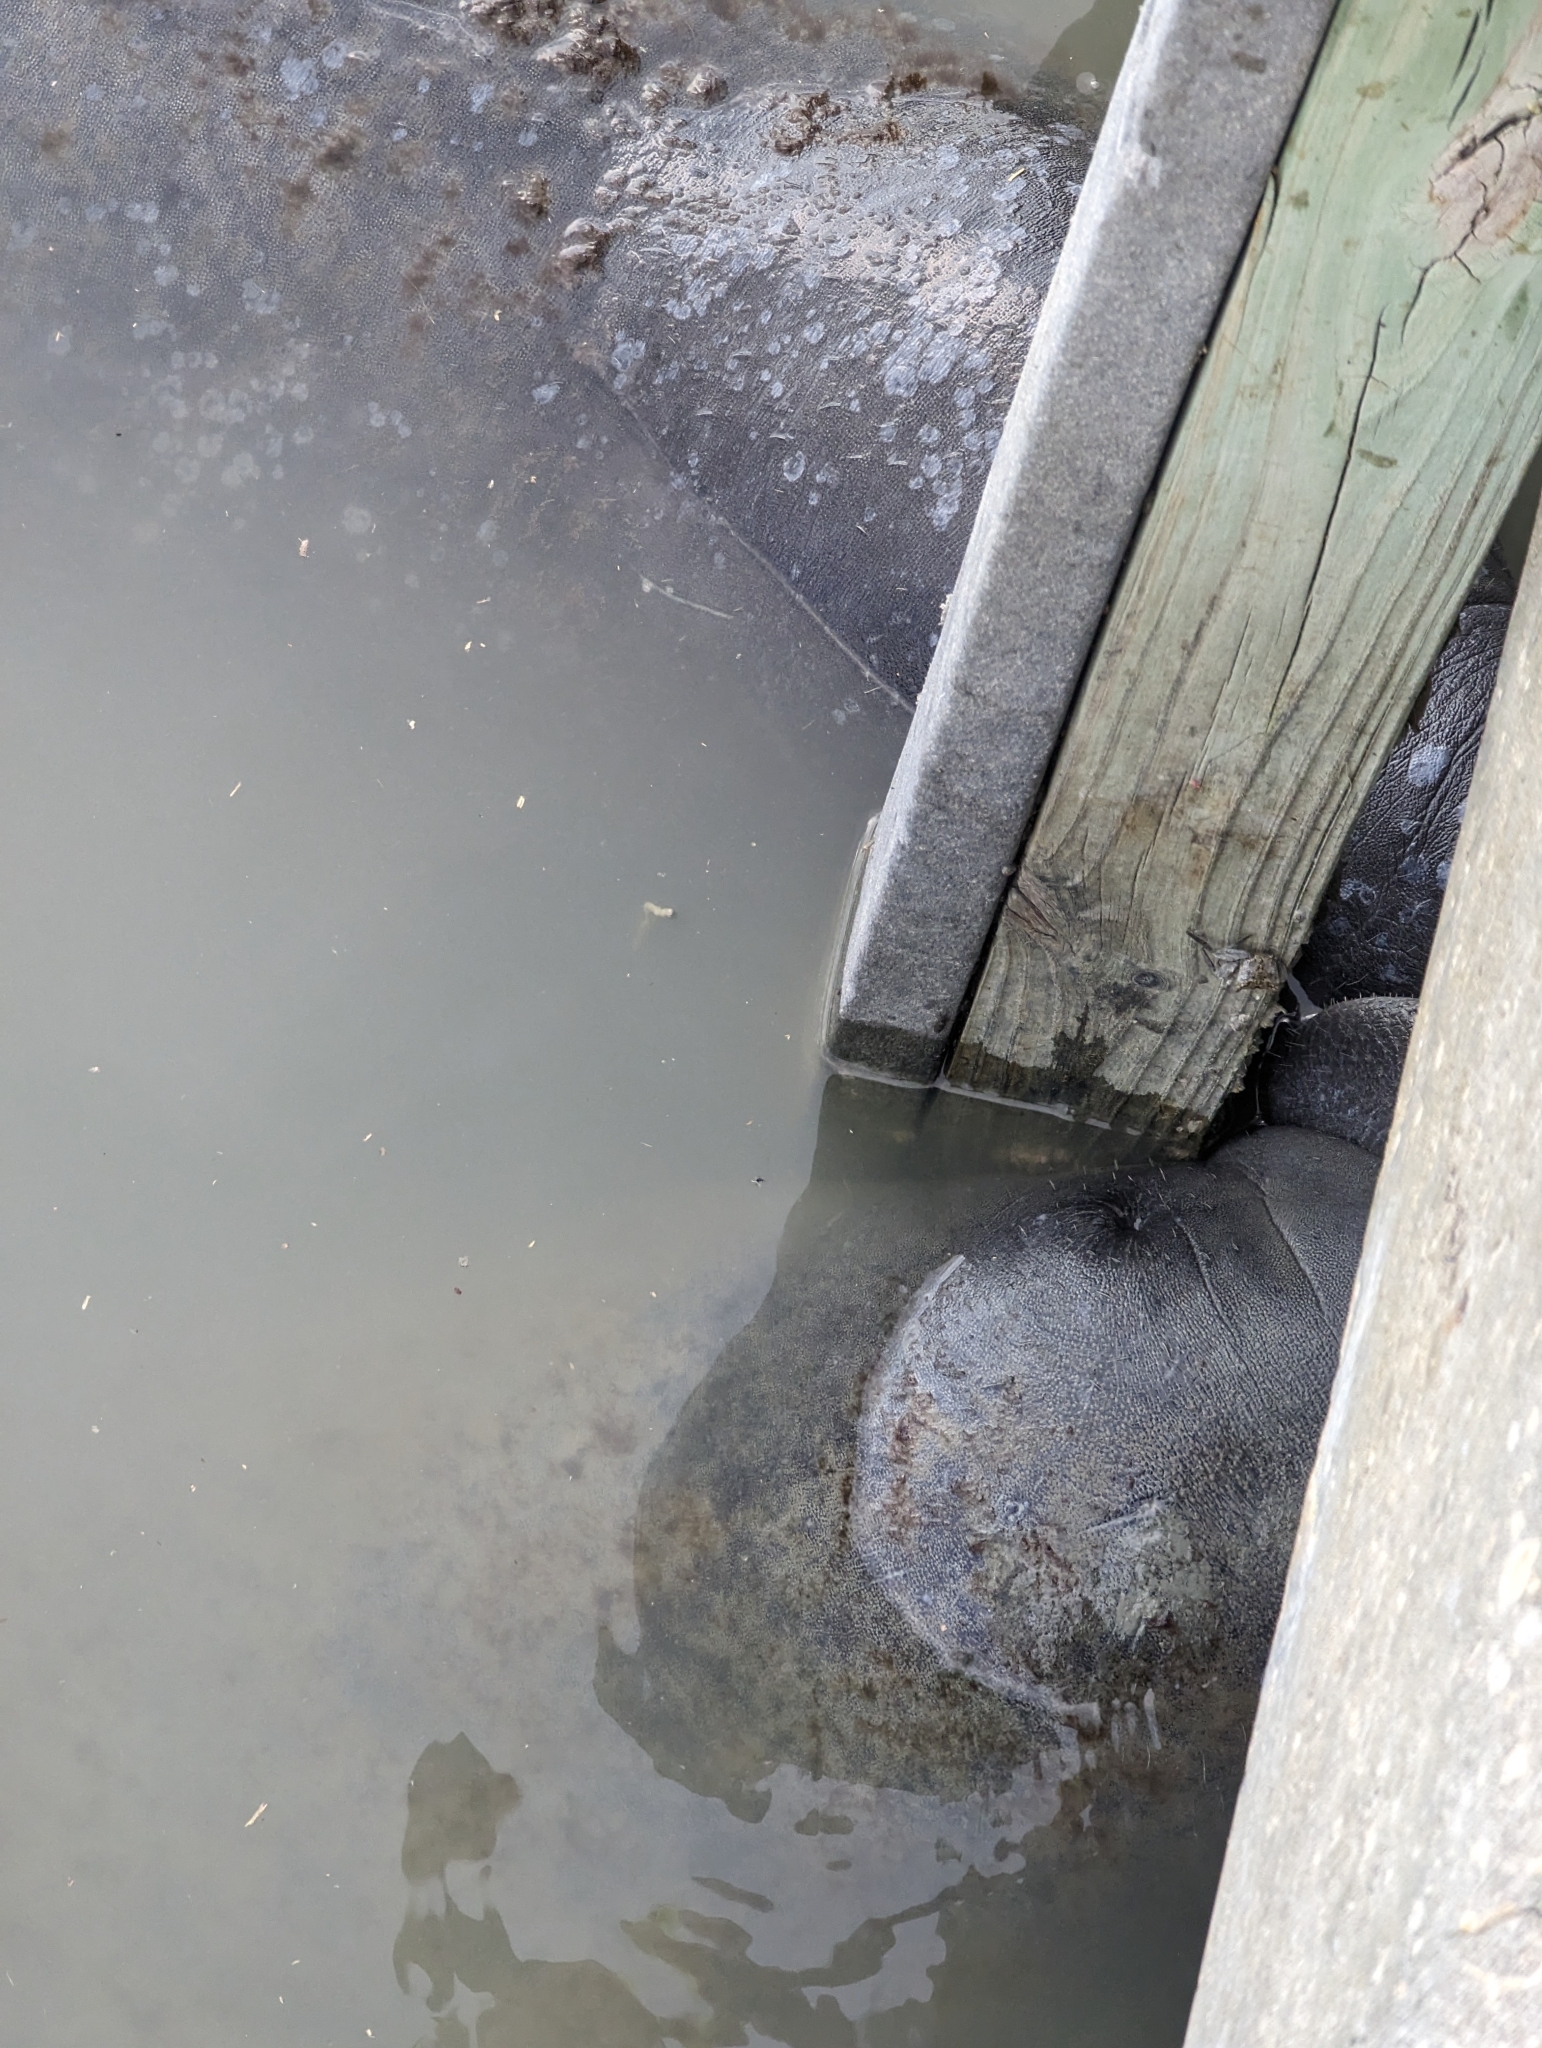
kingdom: Animalia
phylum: Chordata
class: Mammalia
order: Sirenia
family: Trichechidae
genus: Trichechus
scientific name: Trichechus manatus
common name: West indian manatee
